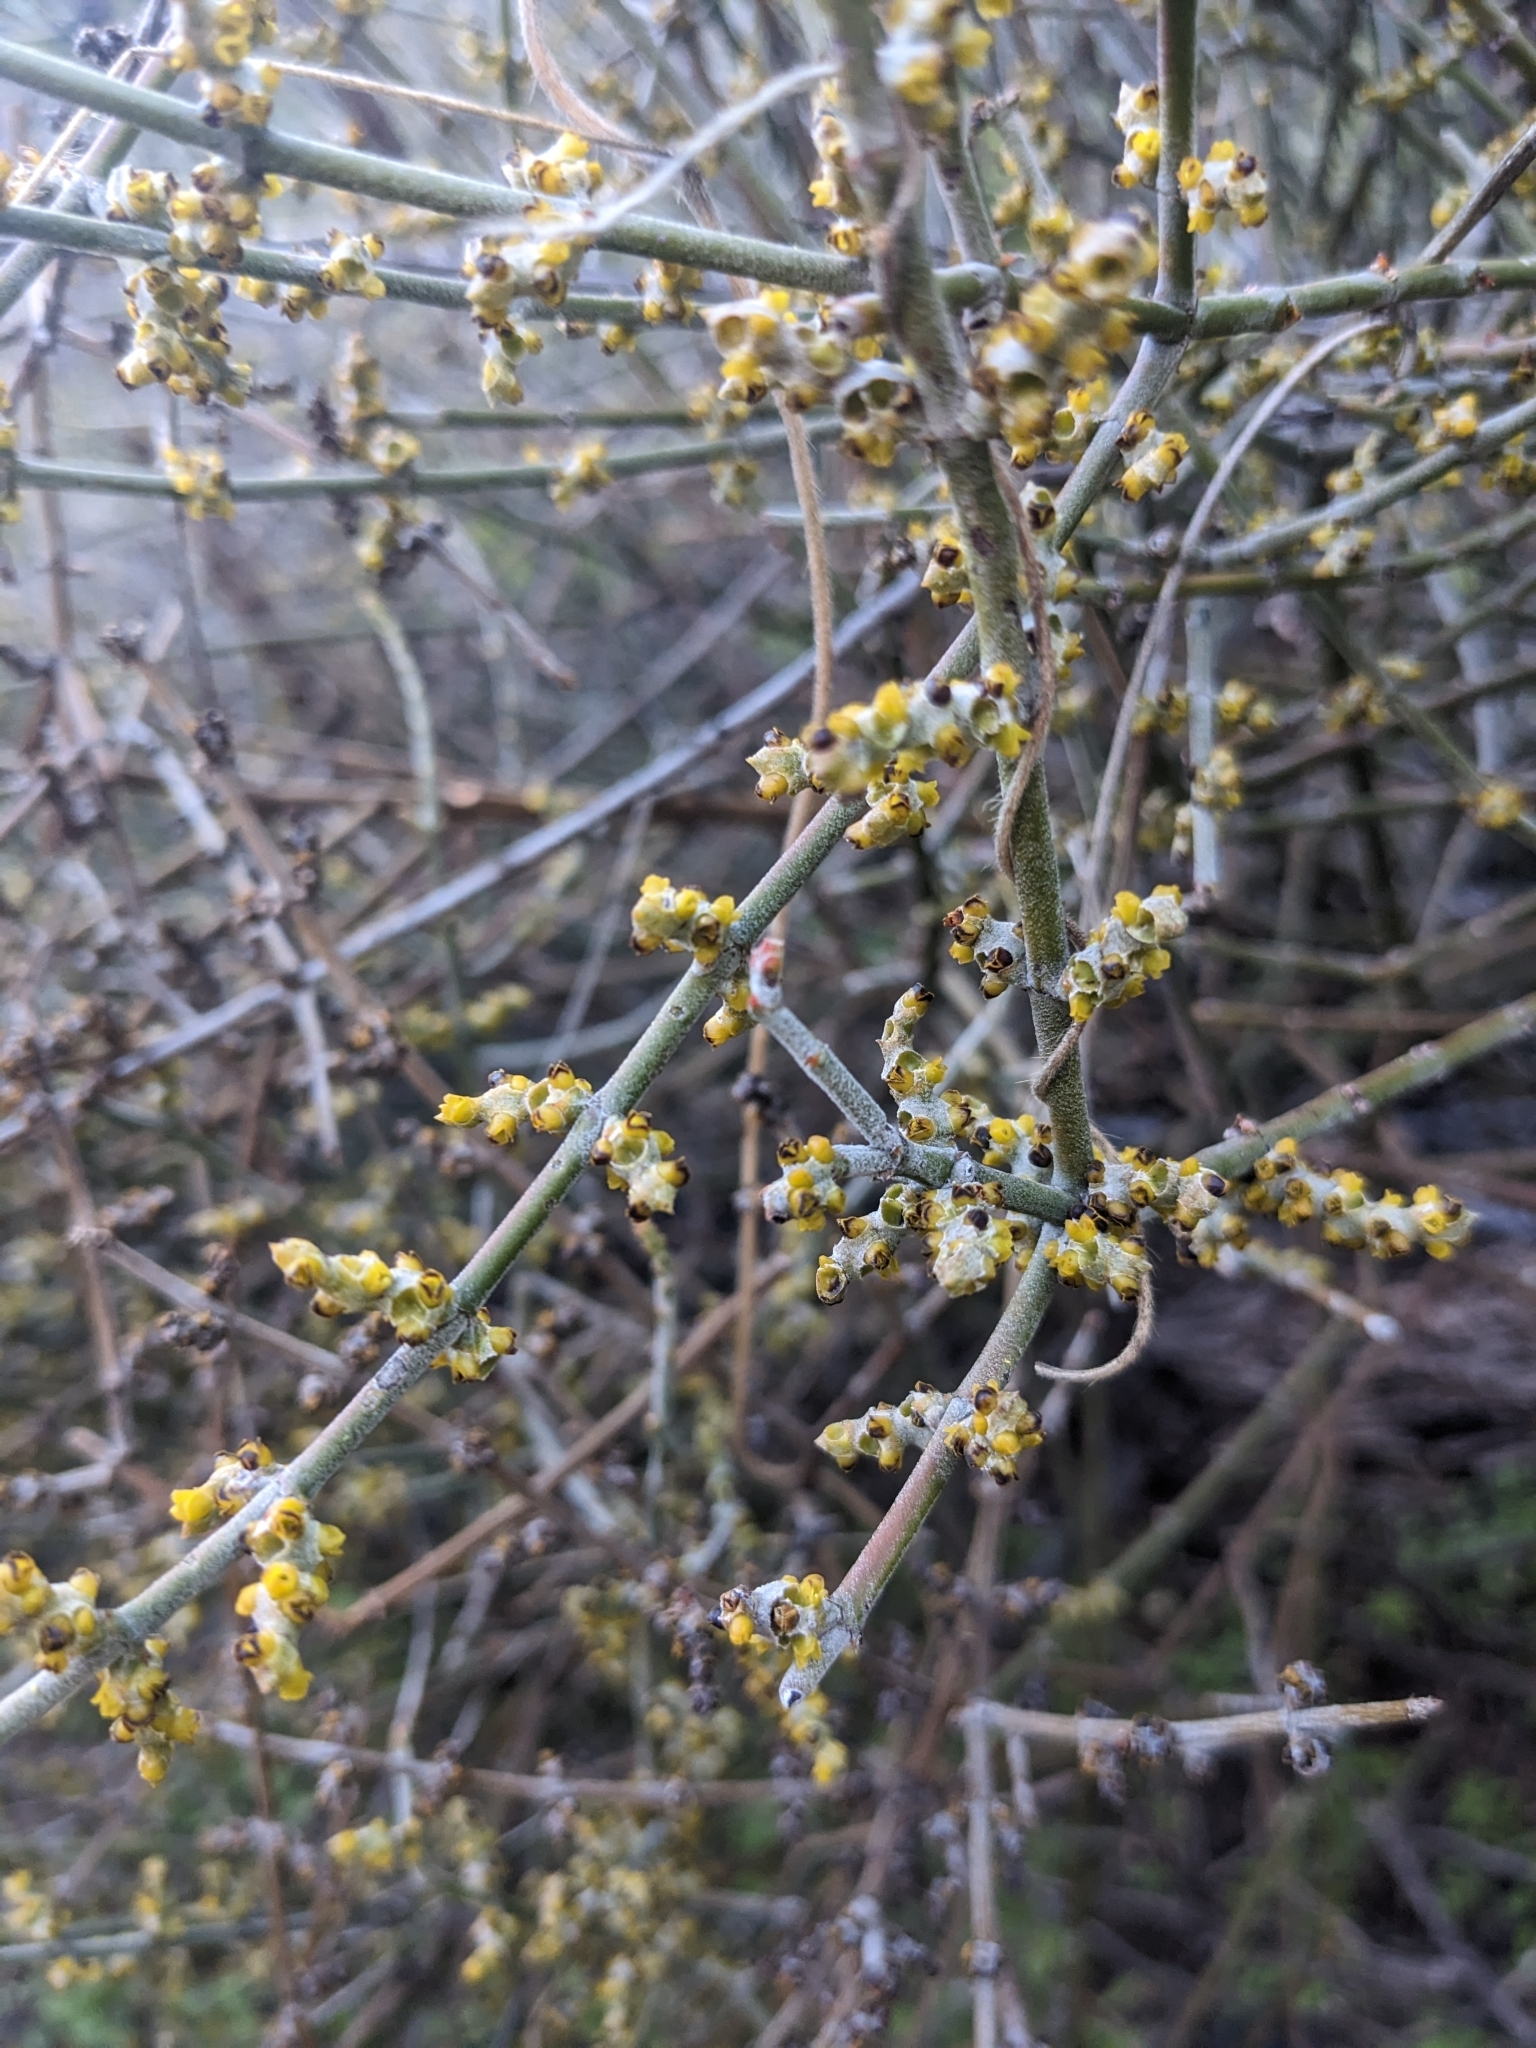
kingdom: Plantae
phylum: Tracheophyta
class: Magnoliopsida
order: Santalales
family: Viscaceae
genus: Phoradendron
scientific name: Phoradendron californicum
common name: Acacia mistletoe
